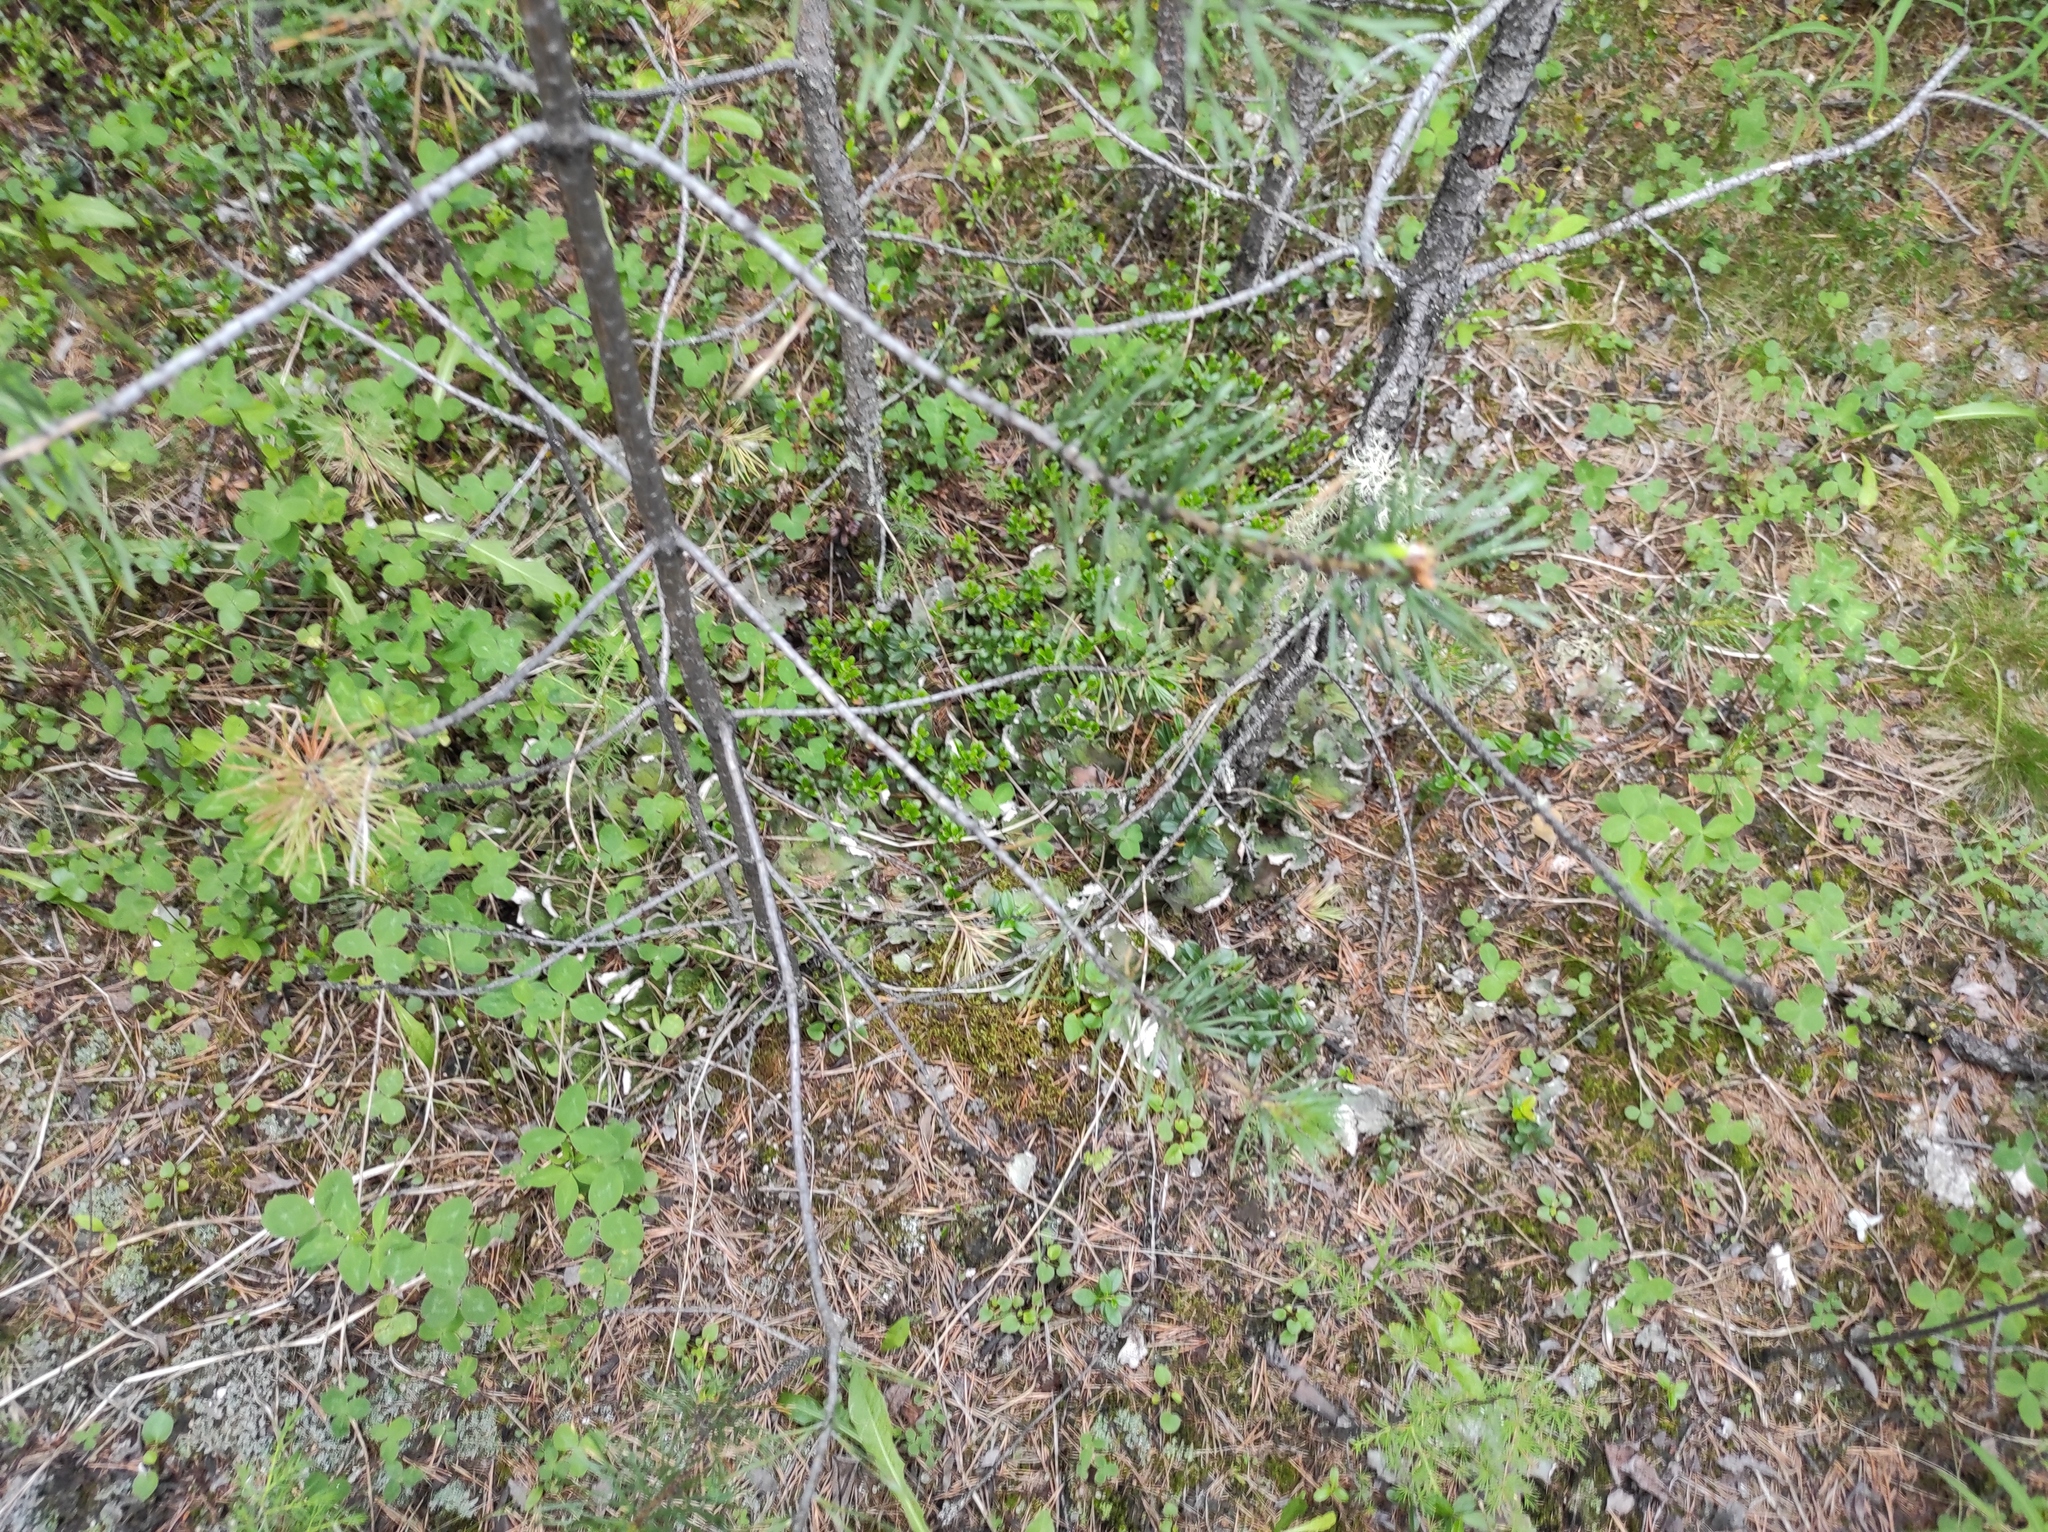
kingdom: Plantae
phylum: Tracheophyta
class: Magnoliopsida
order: Ericales
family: Ericaceae
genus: Vaccinium
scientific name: Vaccinium vitis-idaea
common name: Cowberry
